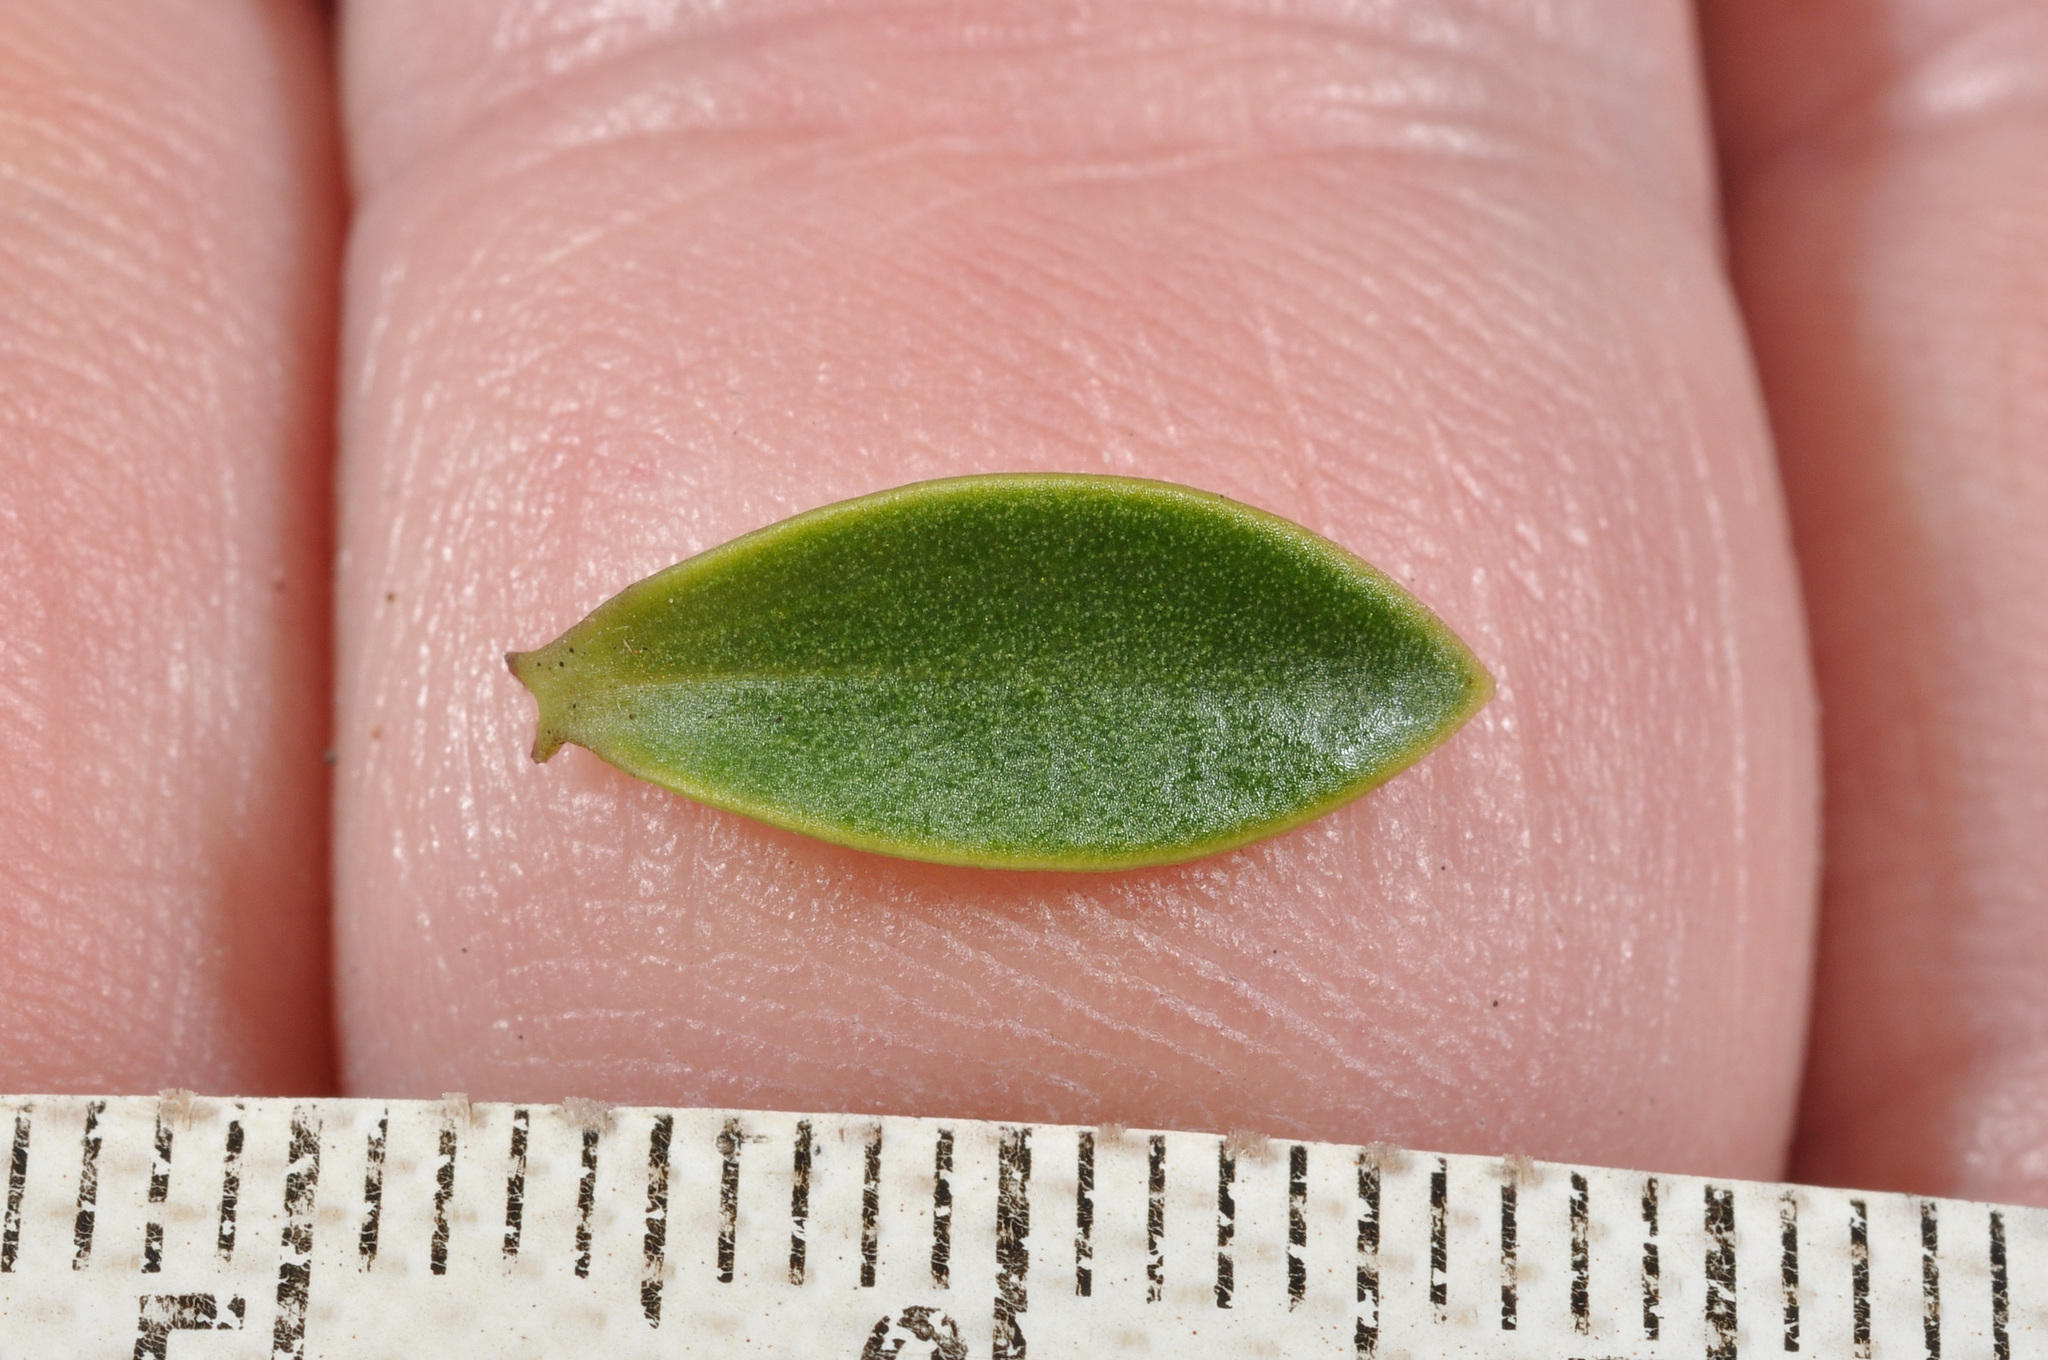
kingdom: Plantae
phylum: Tracheophyta
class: Magnoliopsida
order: Lamiales
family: Plantaginaceae
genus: Veronica
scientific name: Veronica subfulvida
